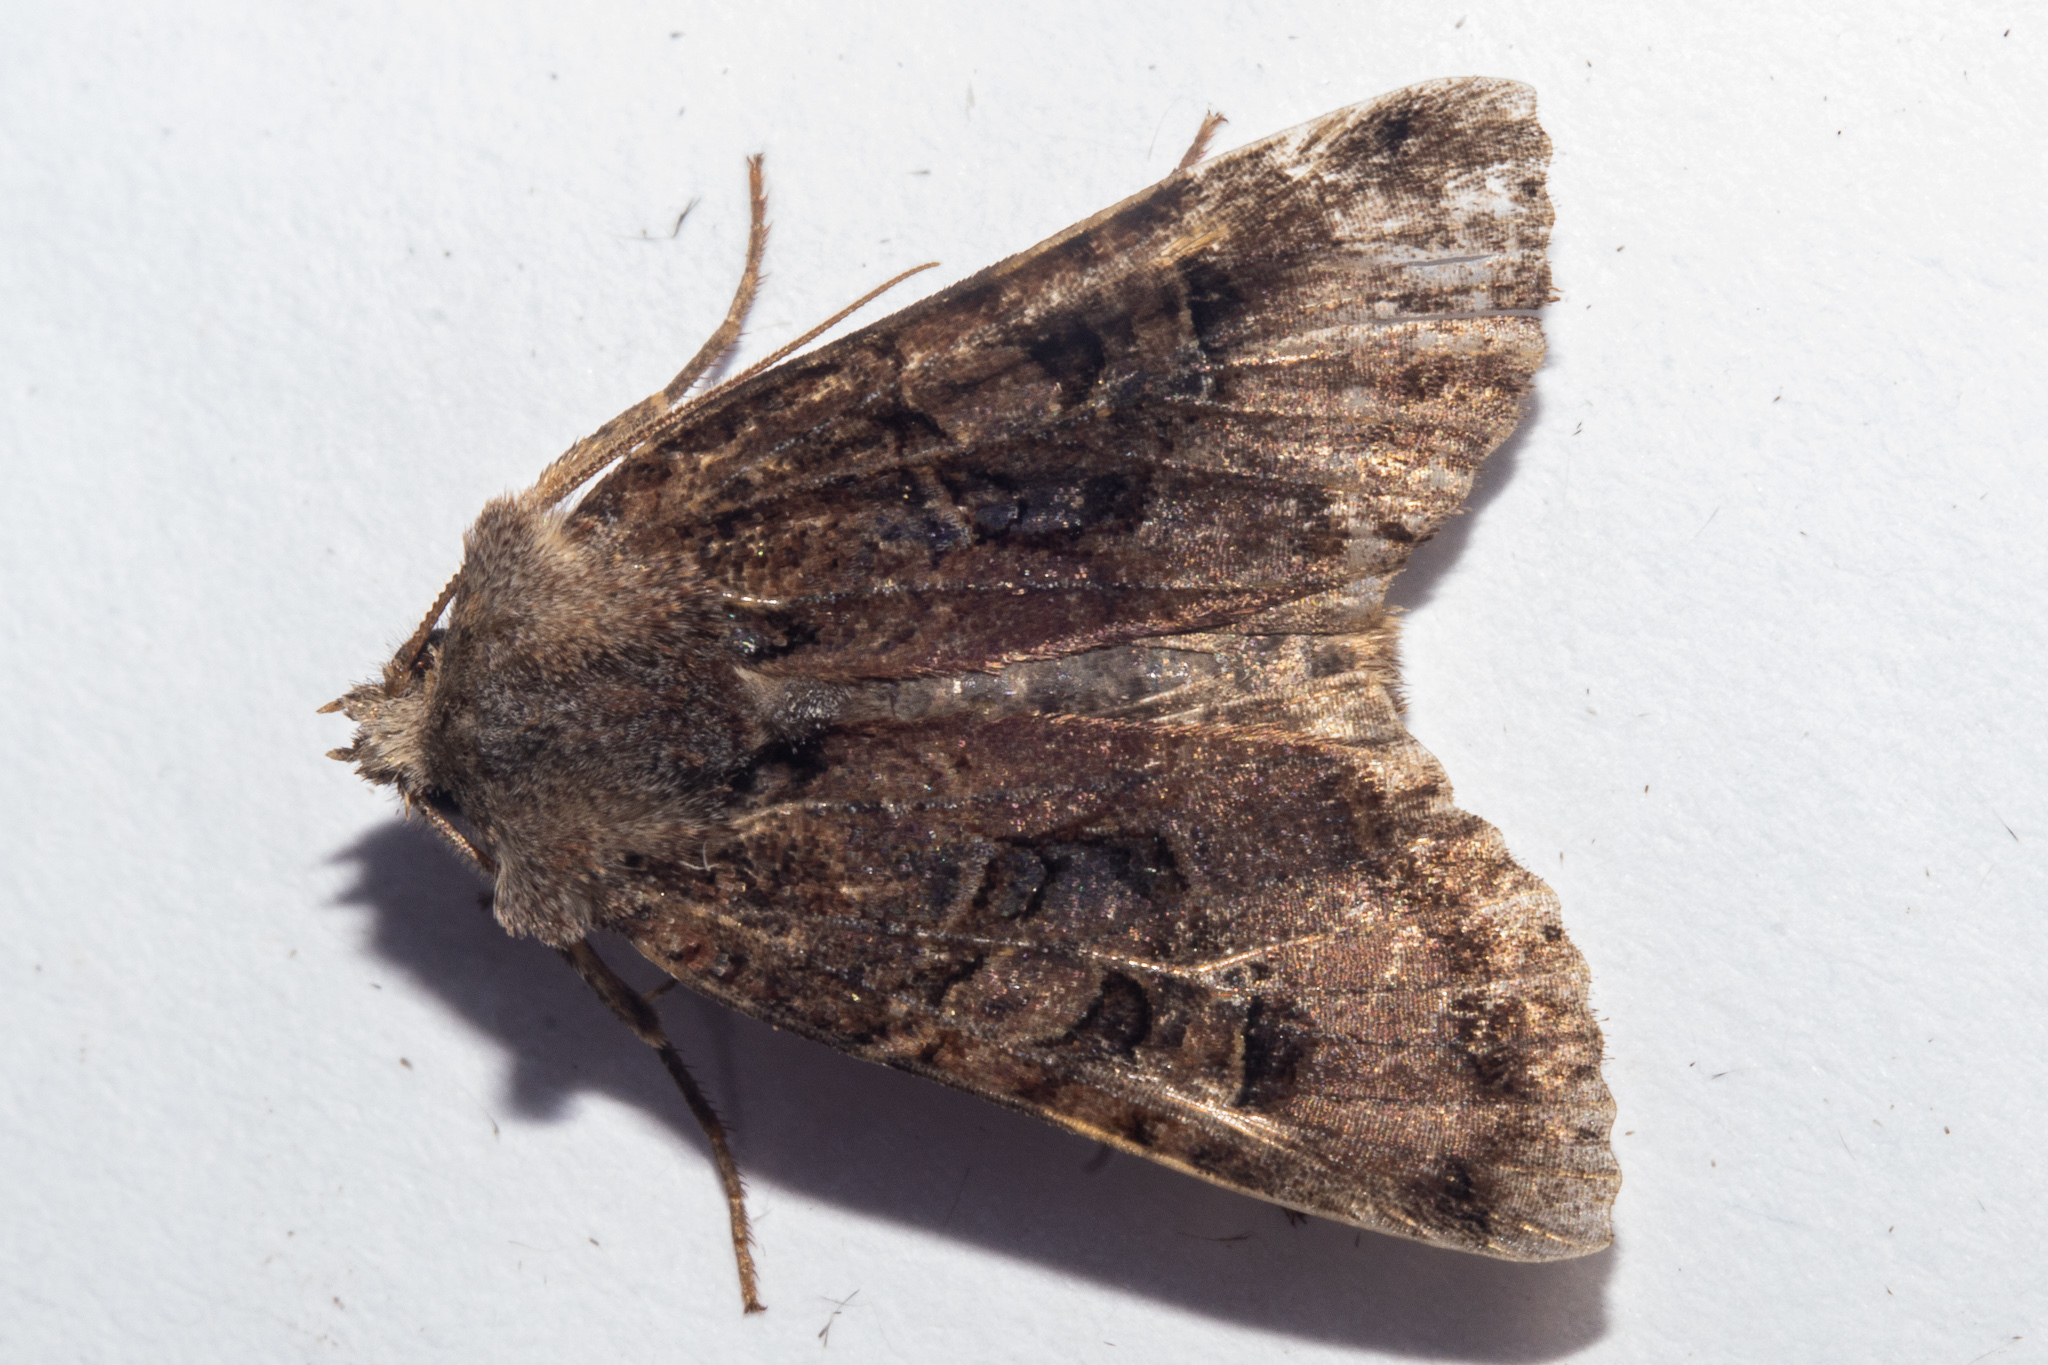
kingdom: Animalia
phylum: Arthropoda
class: Insecta
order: Lepidoptera
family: Noctuidae
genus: Meterana
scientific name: Meterana tartaraea
